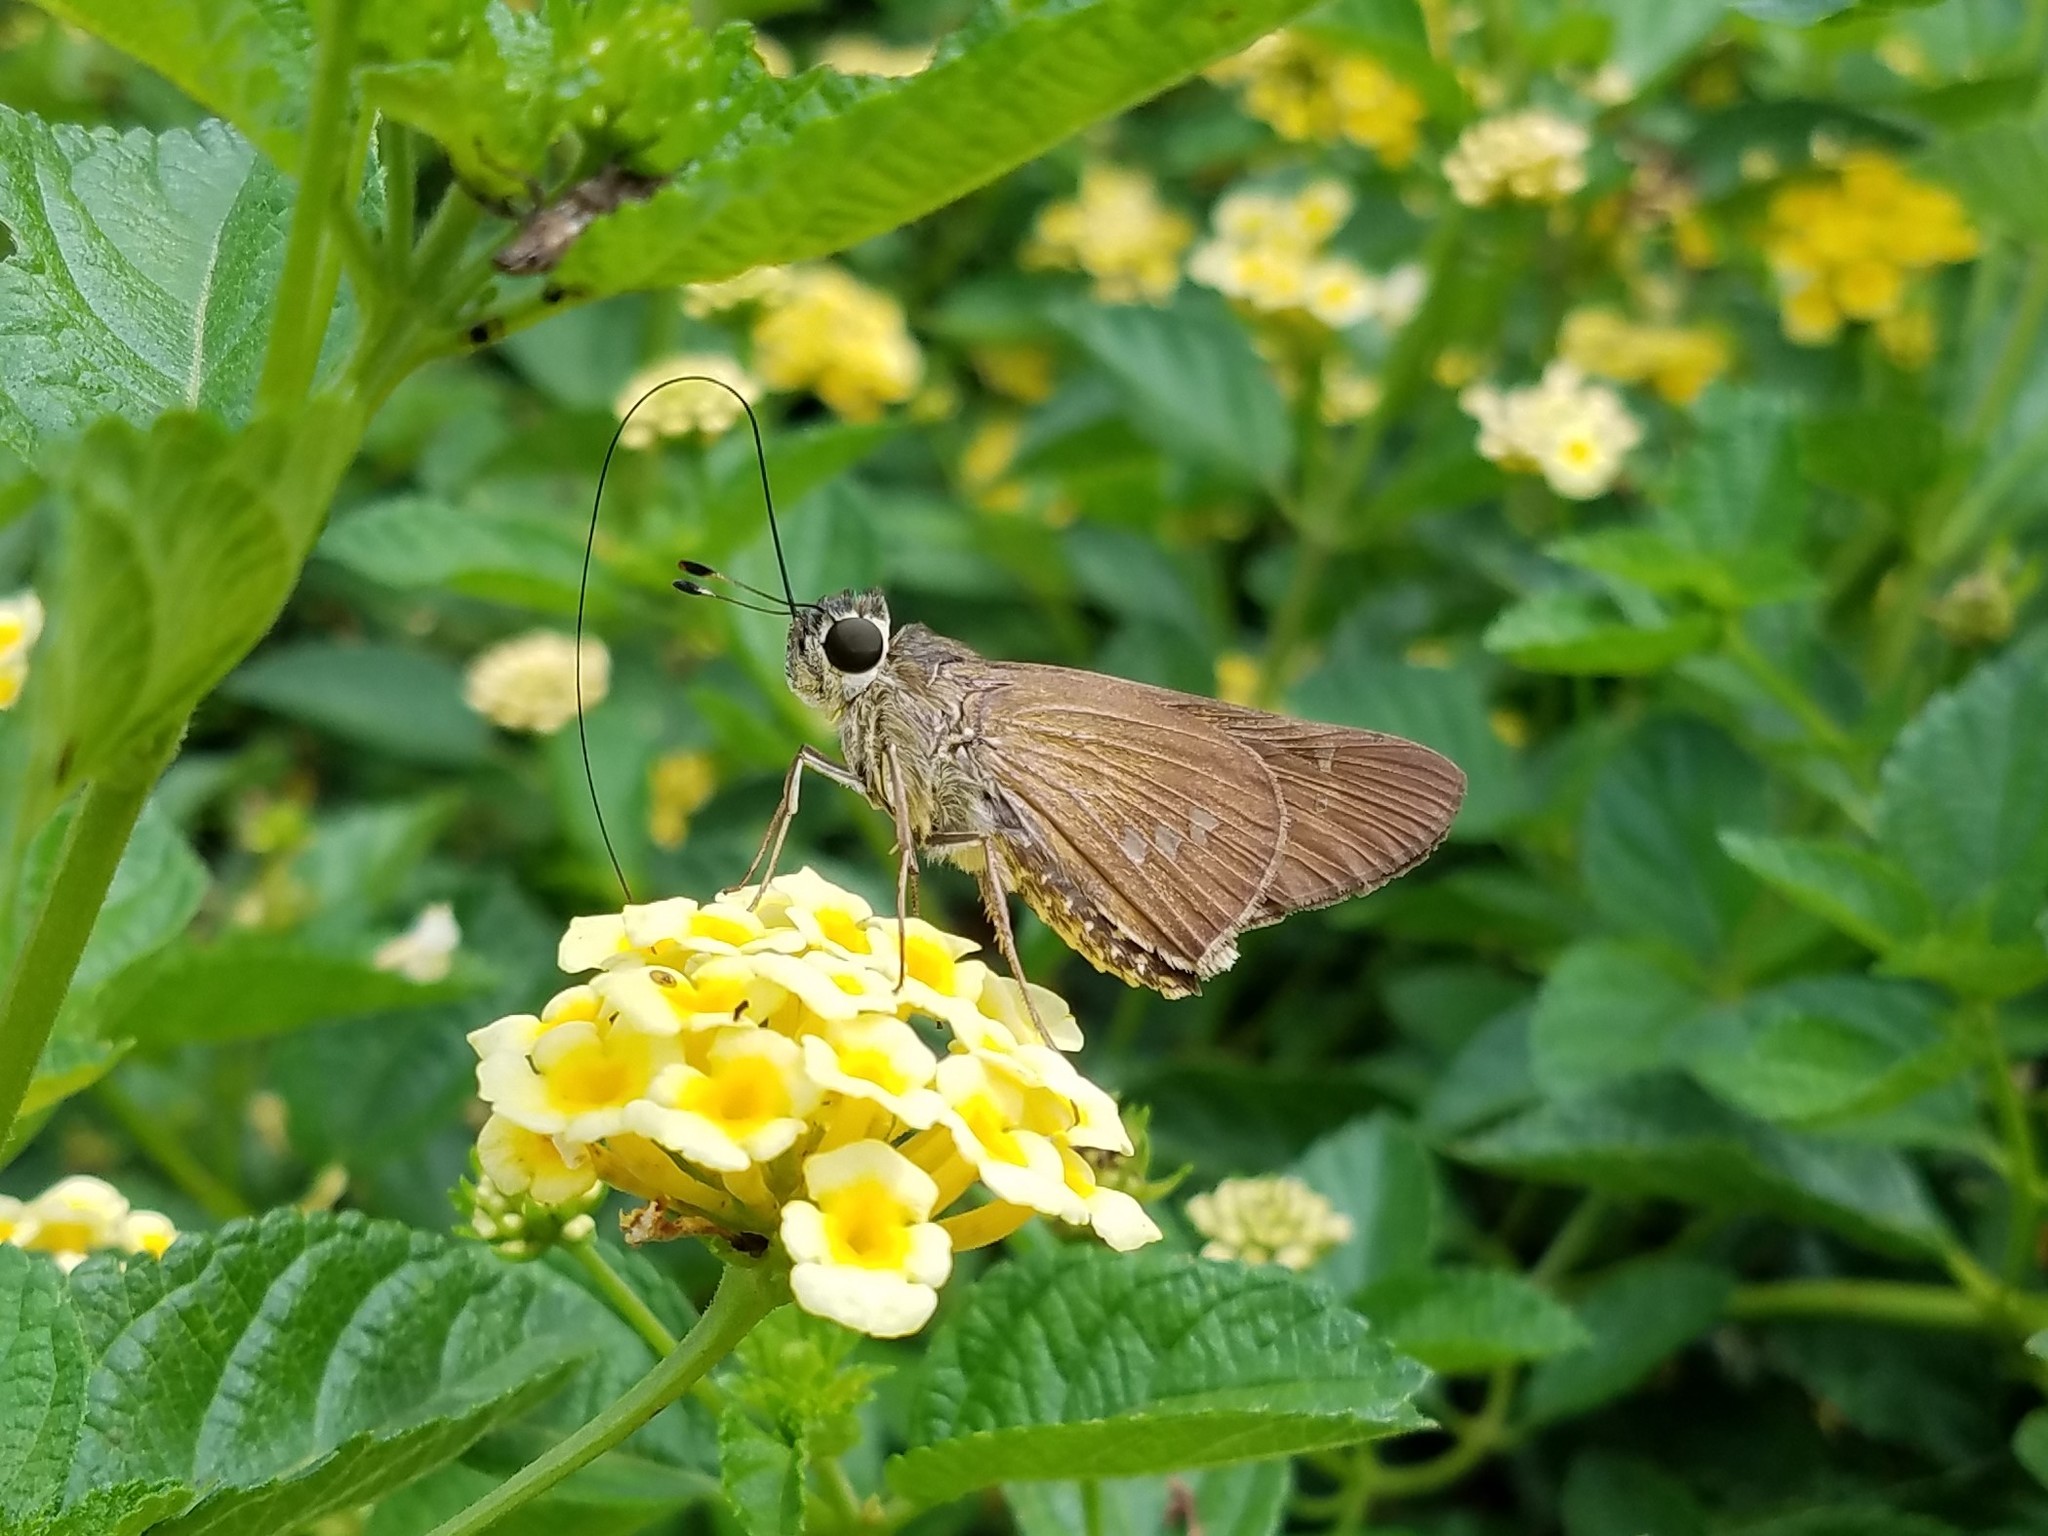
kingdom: Animalia
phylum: Arthropoda
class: Insecta
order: Lepidoptera
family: Hesperiidae
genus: Calpodes
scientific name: Calpodes ethlius
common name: Brazilian skipper
